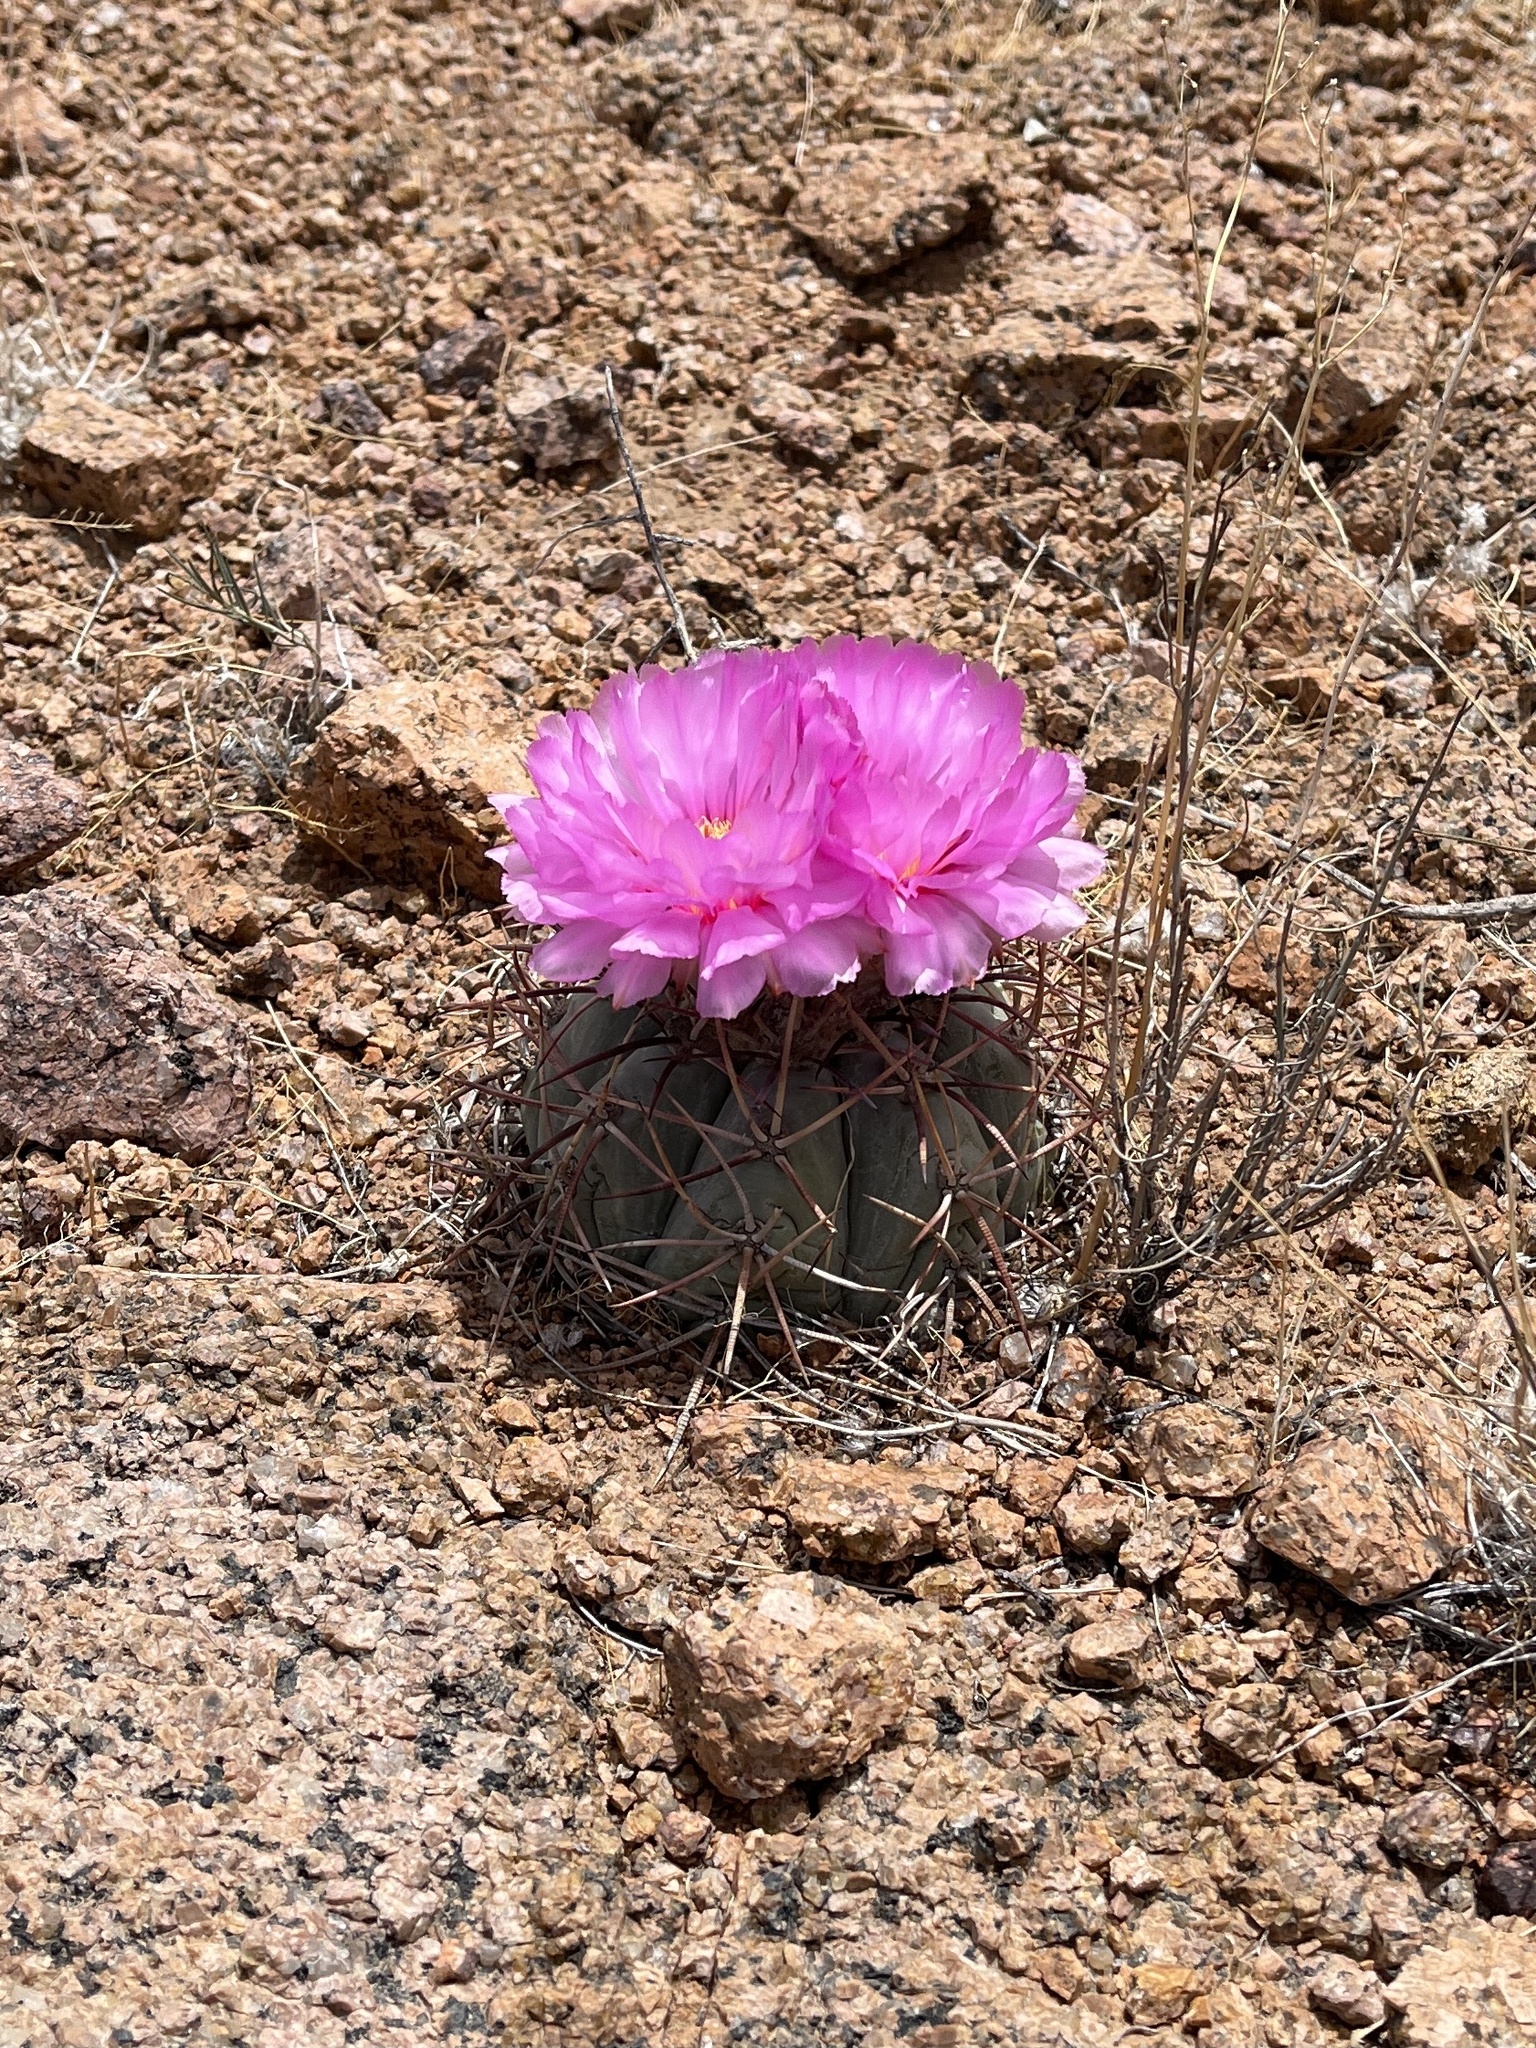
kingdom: Plantae
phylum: Tracheophyta
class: Magnoliopsida
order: Caryophyllales
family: Cactaceae
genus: Echinocactus
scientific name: Echinocactus horizonthalonius
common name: Devilshead
